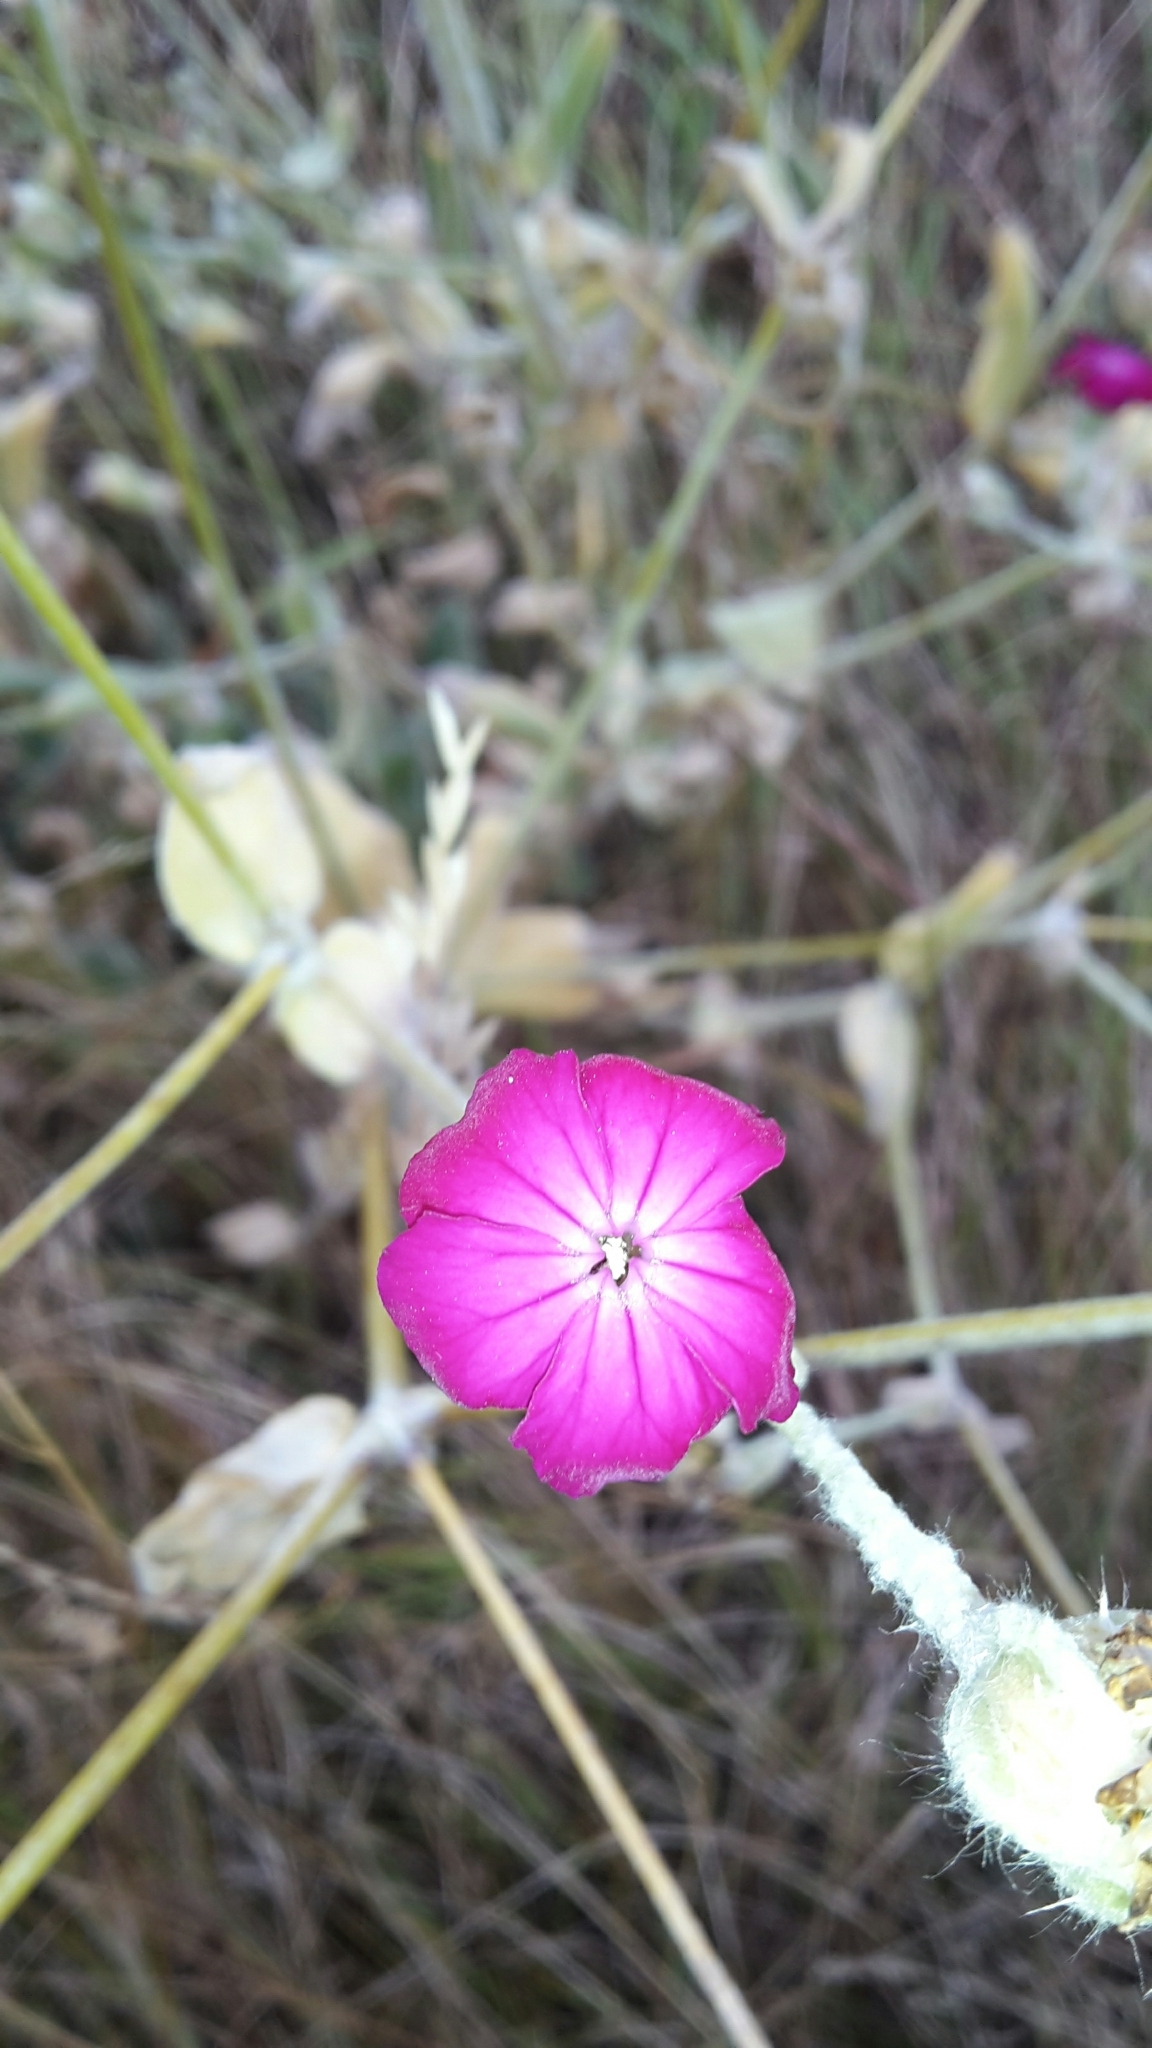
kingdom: Plantae
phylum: Tracheophyta
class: Magnoliopsida
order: Caryophyllales
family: Caryophyllaceae
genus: Silene
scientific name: Silene coronaria
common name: Rose campion
